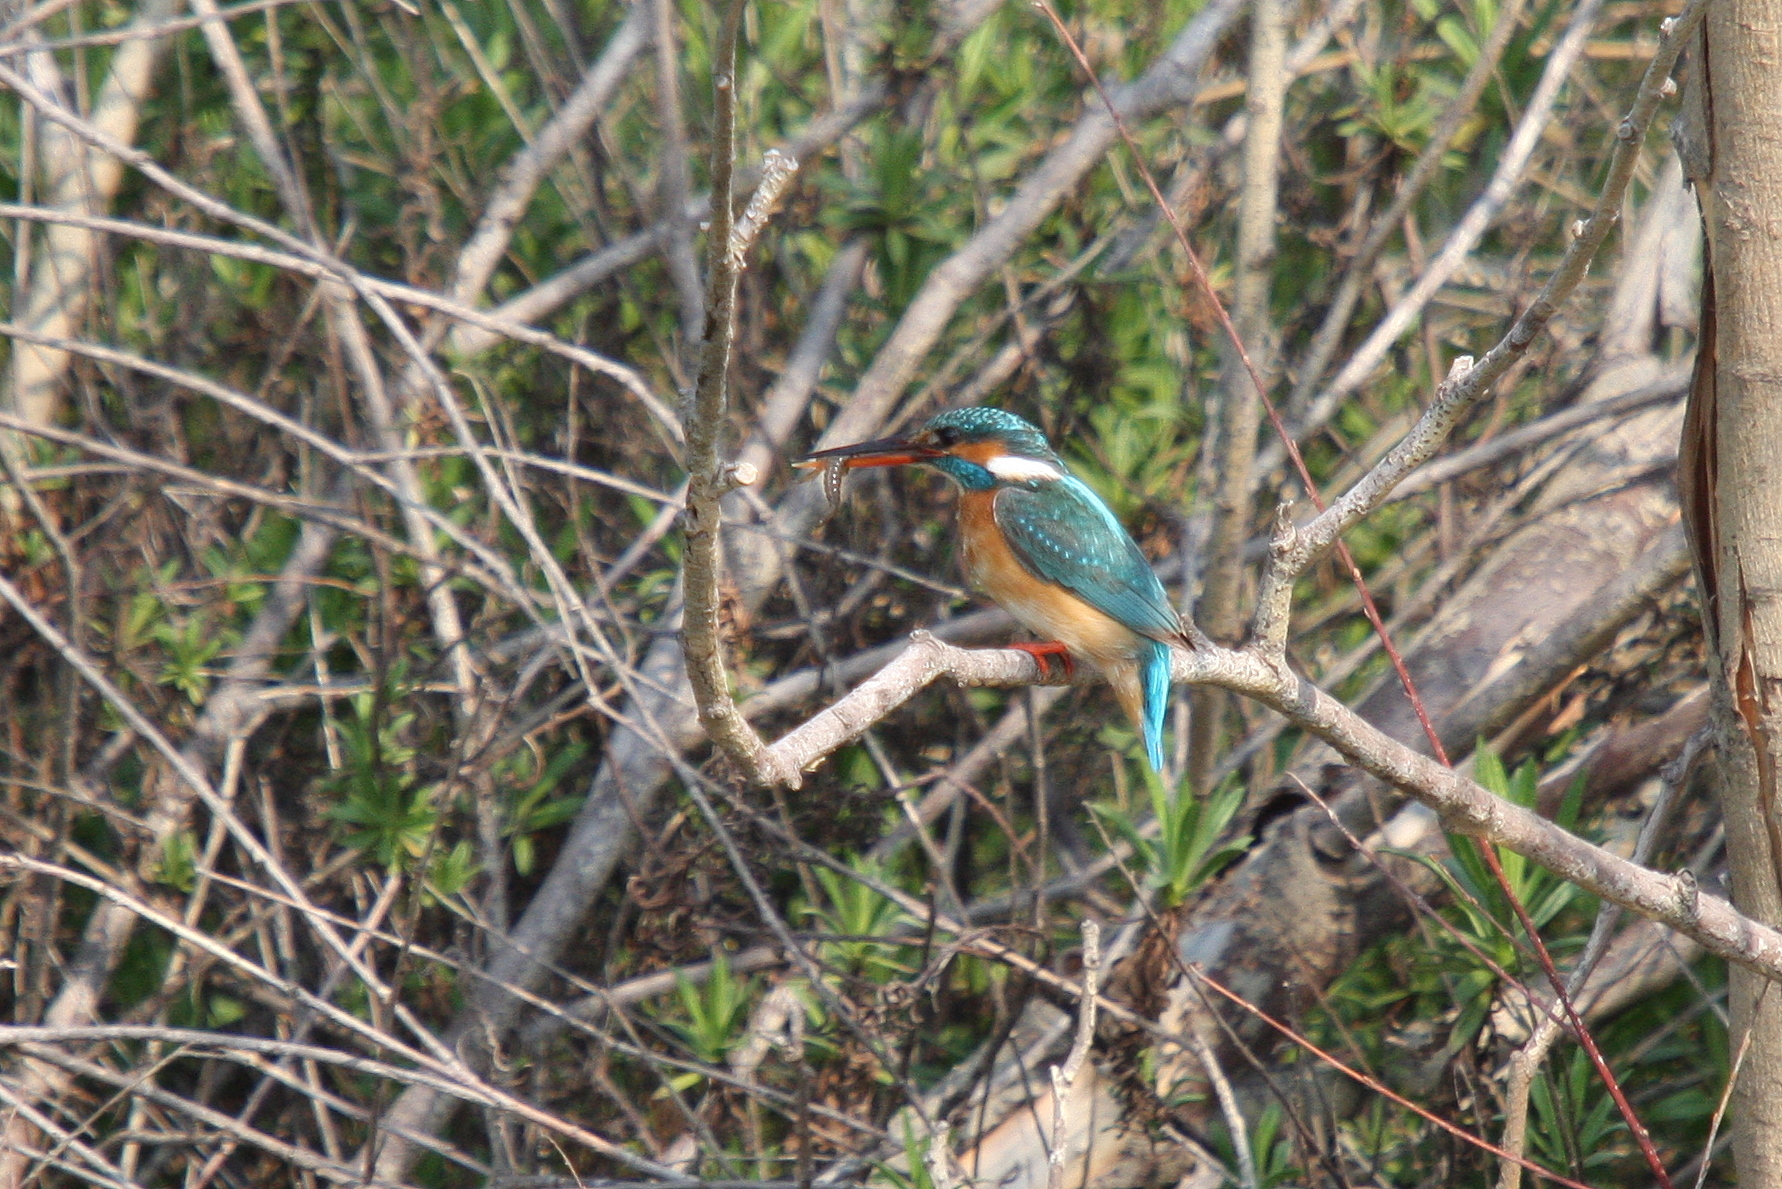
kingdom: Animalia
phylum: Chordata
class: Aves
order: Coraciiformes
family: Alcedinidae
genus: Alcedo
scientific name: Alcedo atthis
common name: Common kingfisher
